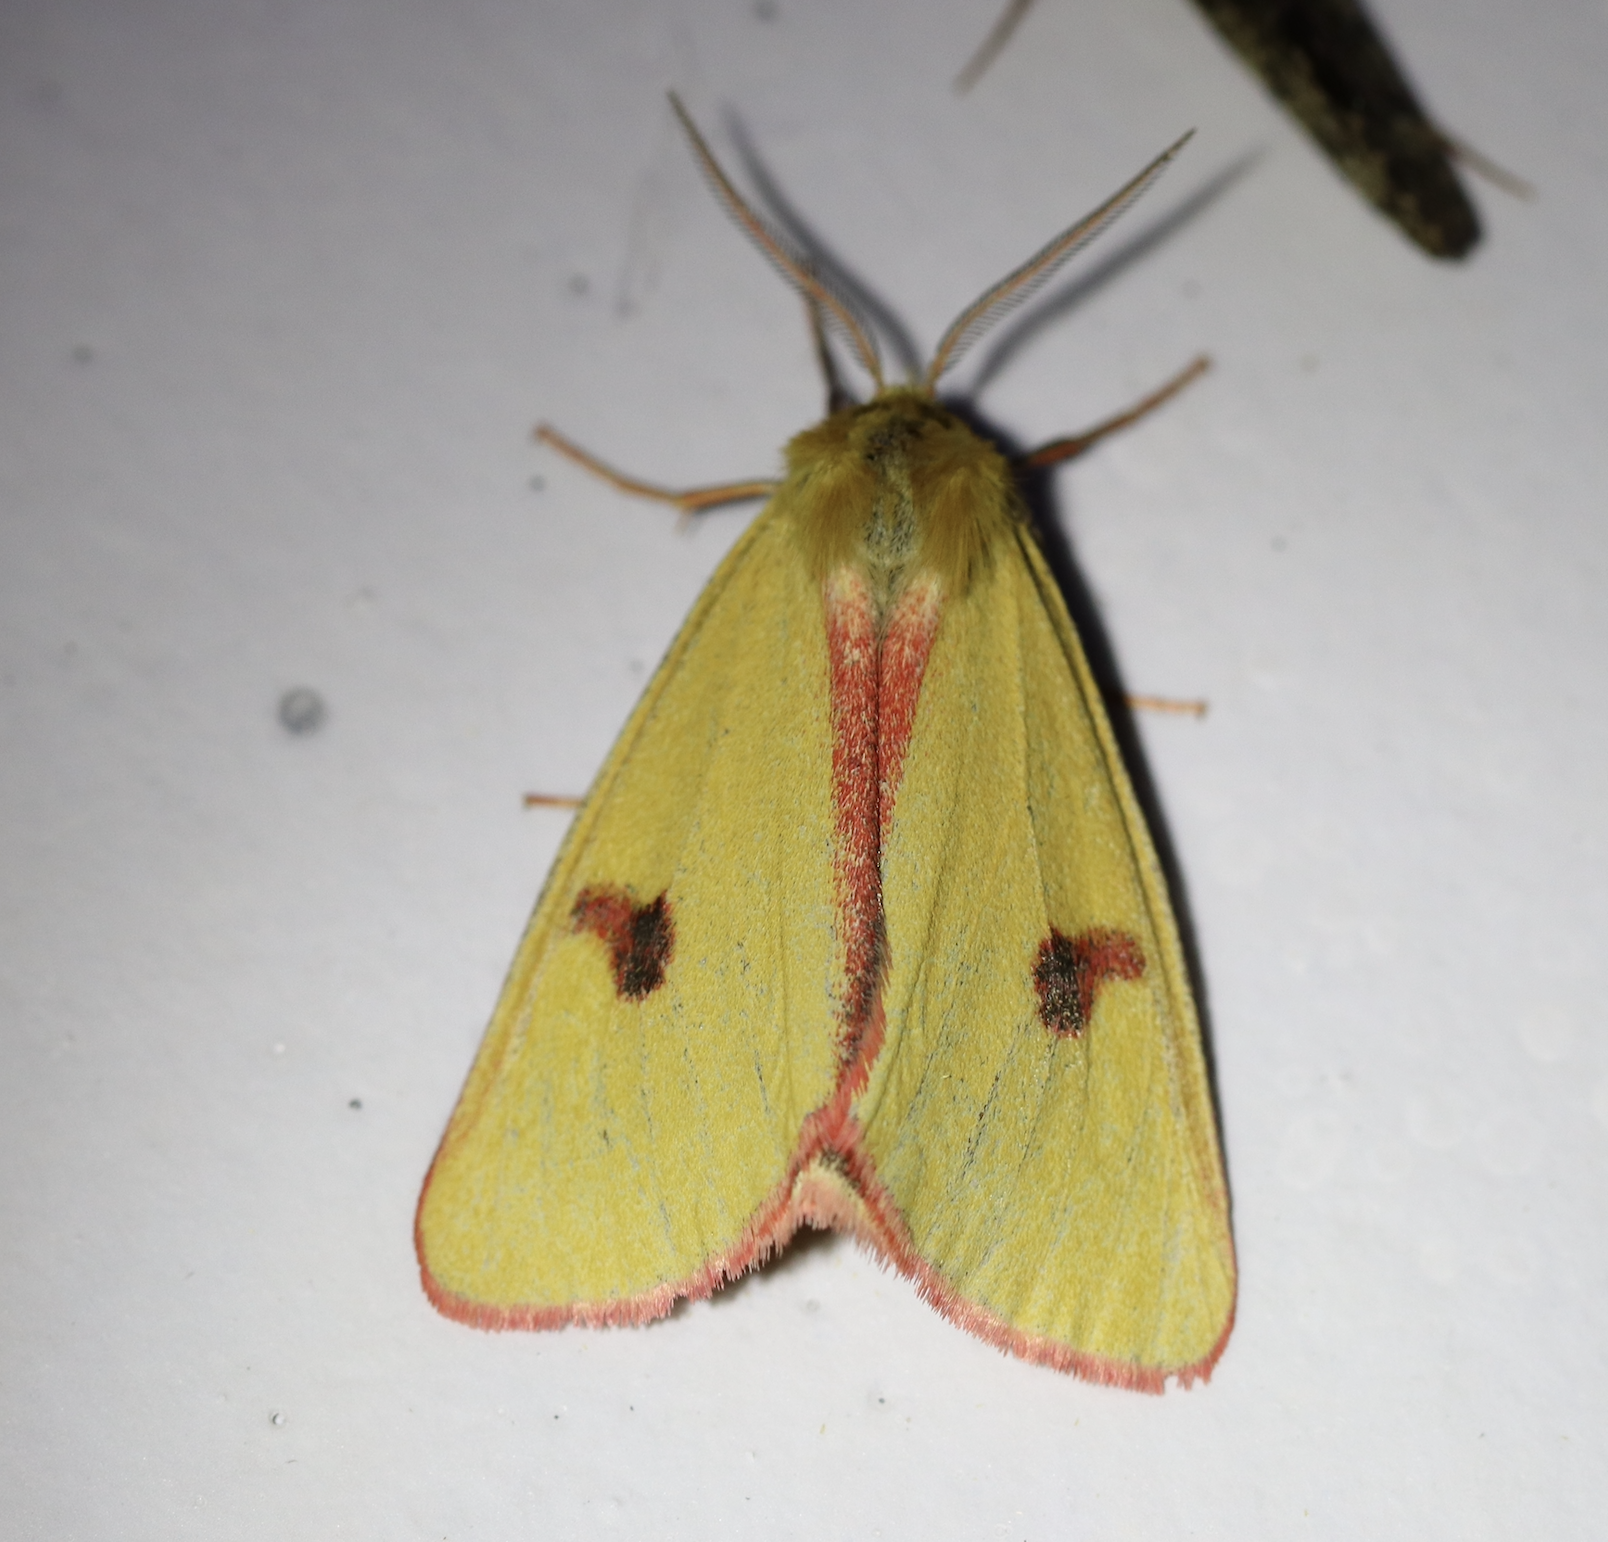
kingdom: Animalia
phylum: Arthropoda
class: Insecta
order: Lepidoptera
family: Erebidae
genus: Diacrisia
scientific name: Diacrisia sannio
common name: Clouded buff
